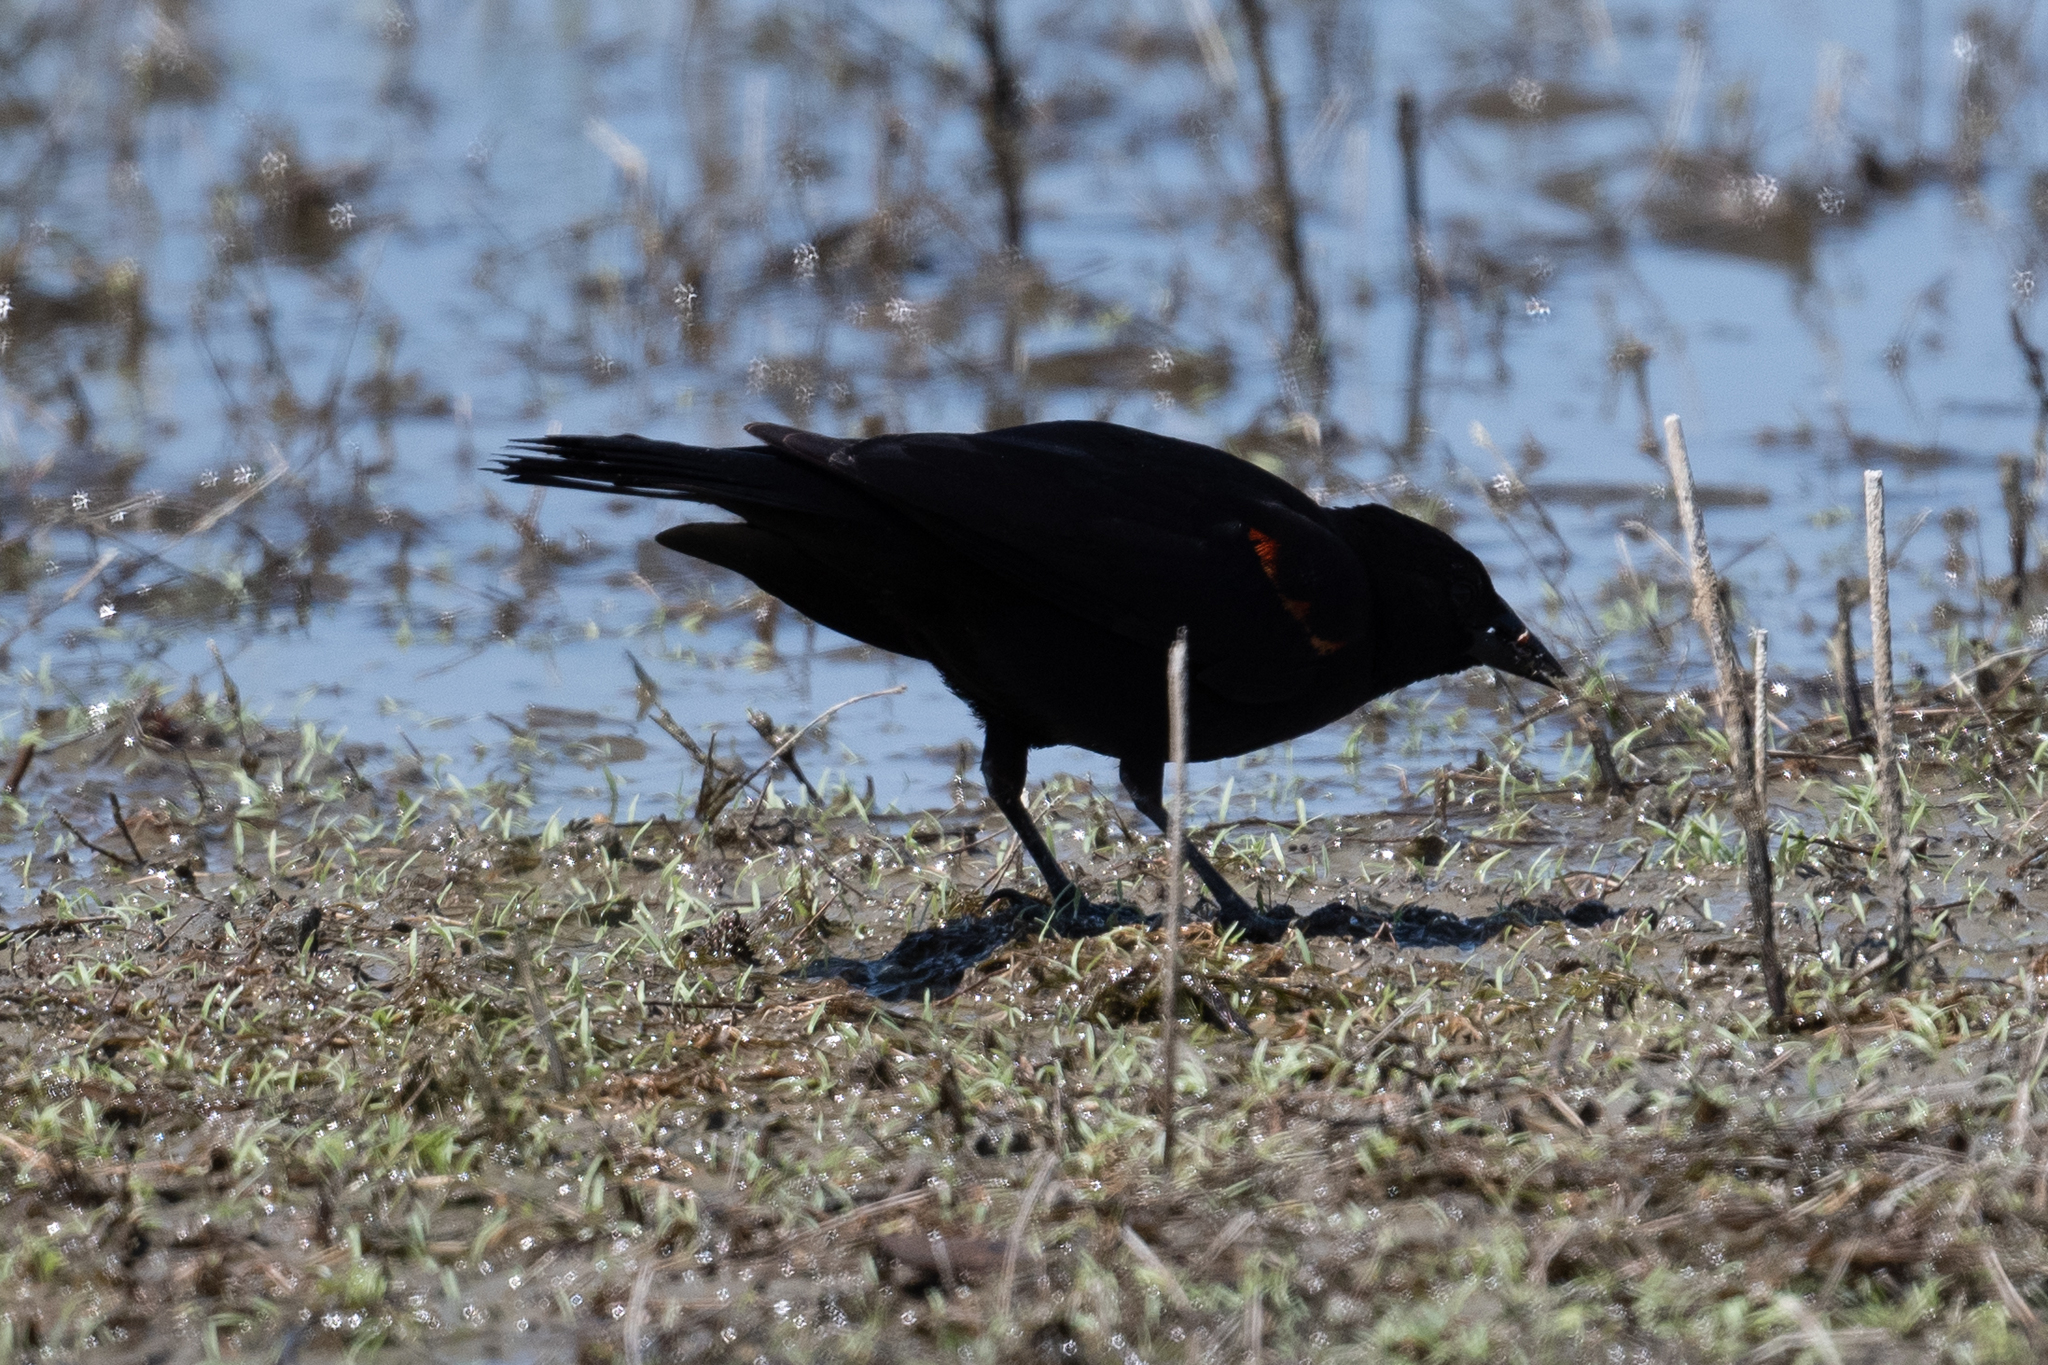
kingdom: Animalia
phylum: Chordata
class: Aves
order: Passeriformes
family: Icteridae
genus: Agelaius
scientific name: Agelaius phoeniceus
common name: Red-winged blackbird
